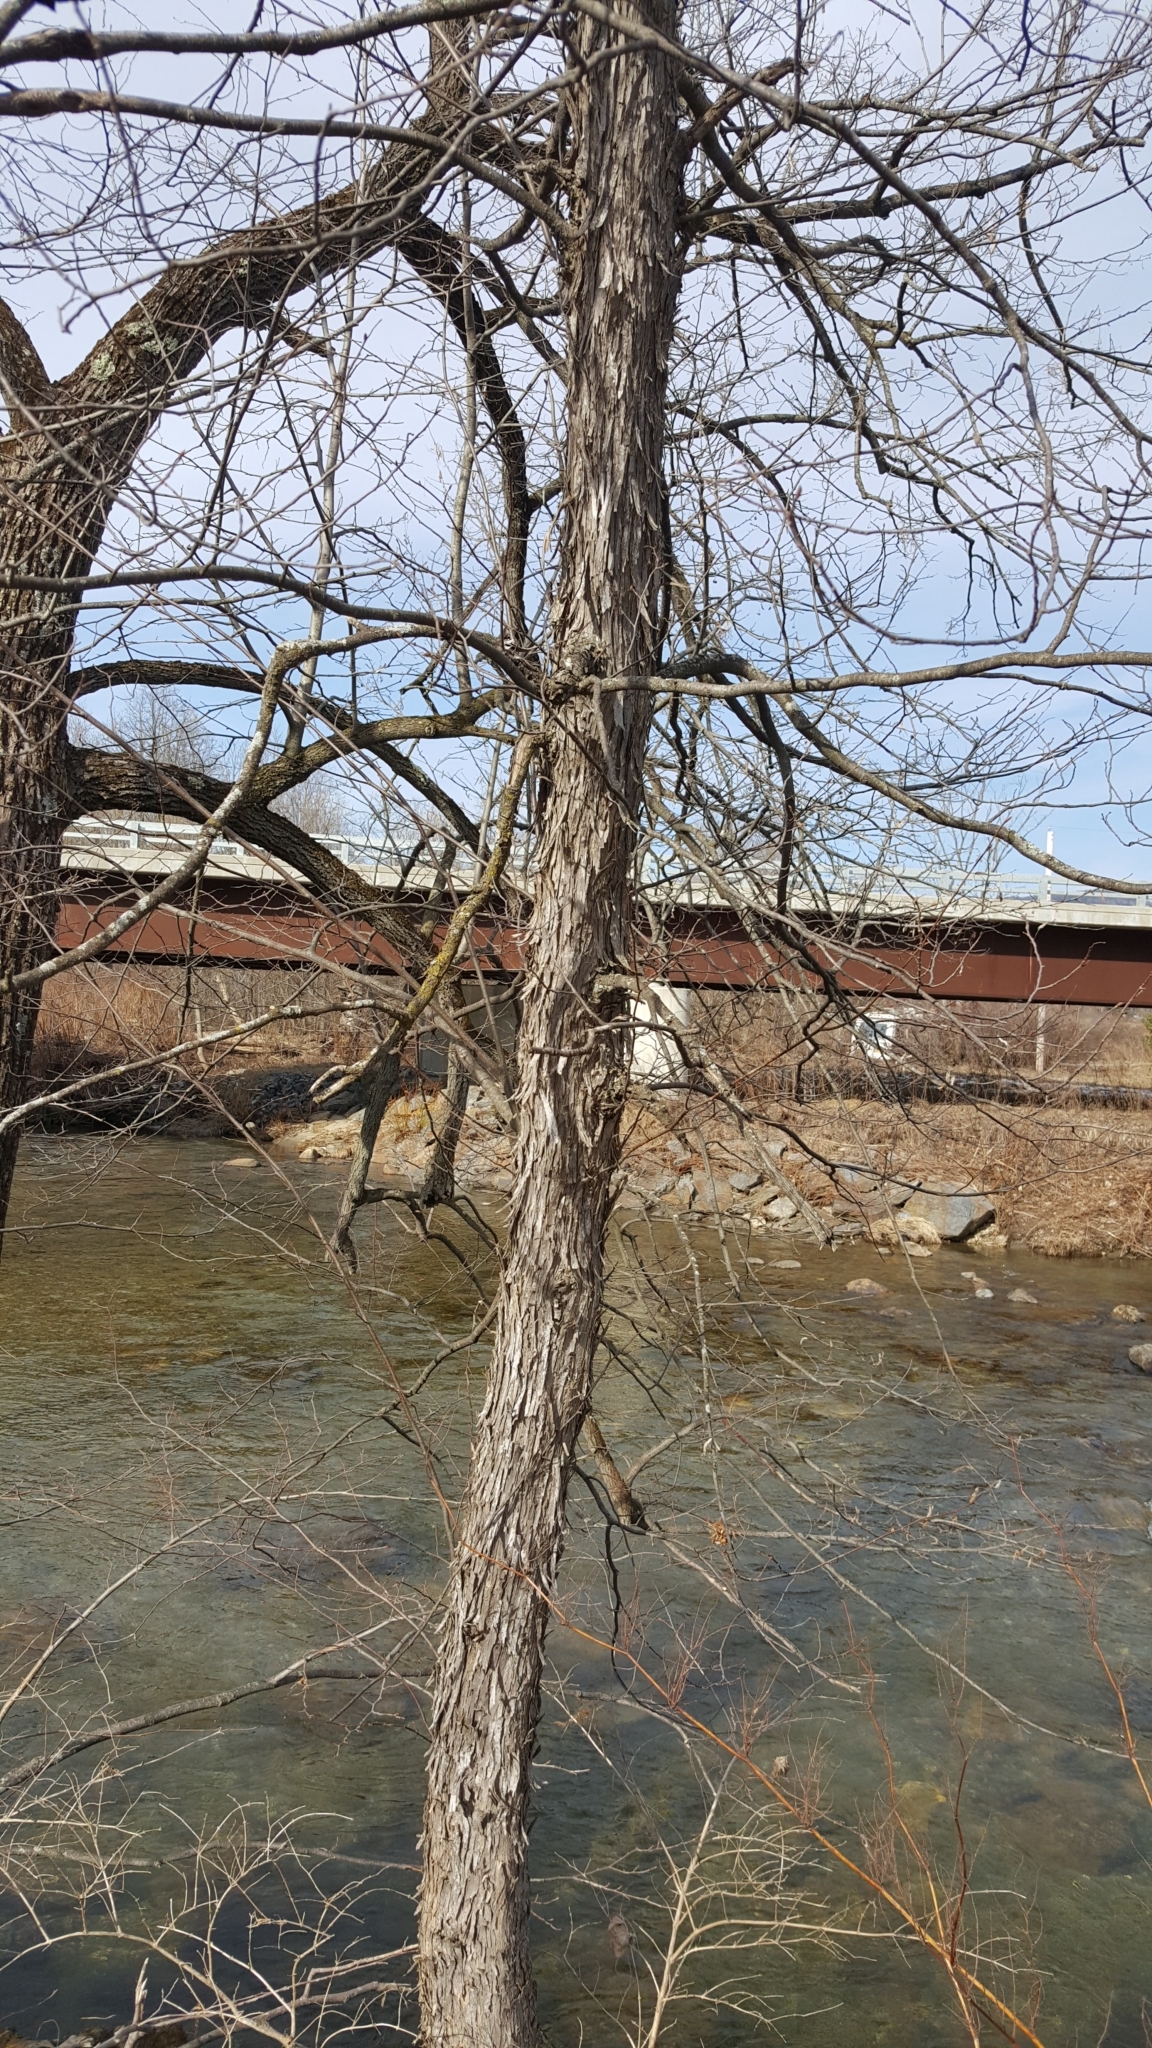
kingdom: Plantae
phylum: Tracheophyta
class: Magnoliopsida
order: Fagales
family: Betulaceae
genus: Ostrya
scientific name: Ostrya virginiana
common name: Ironwood
